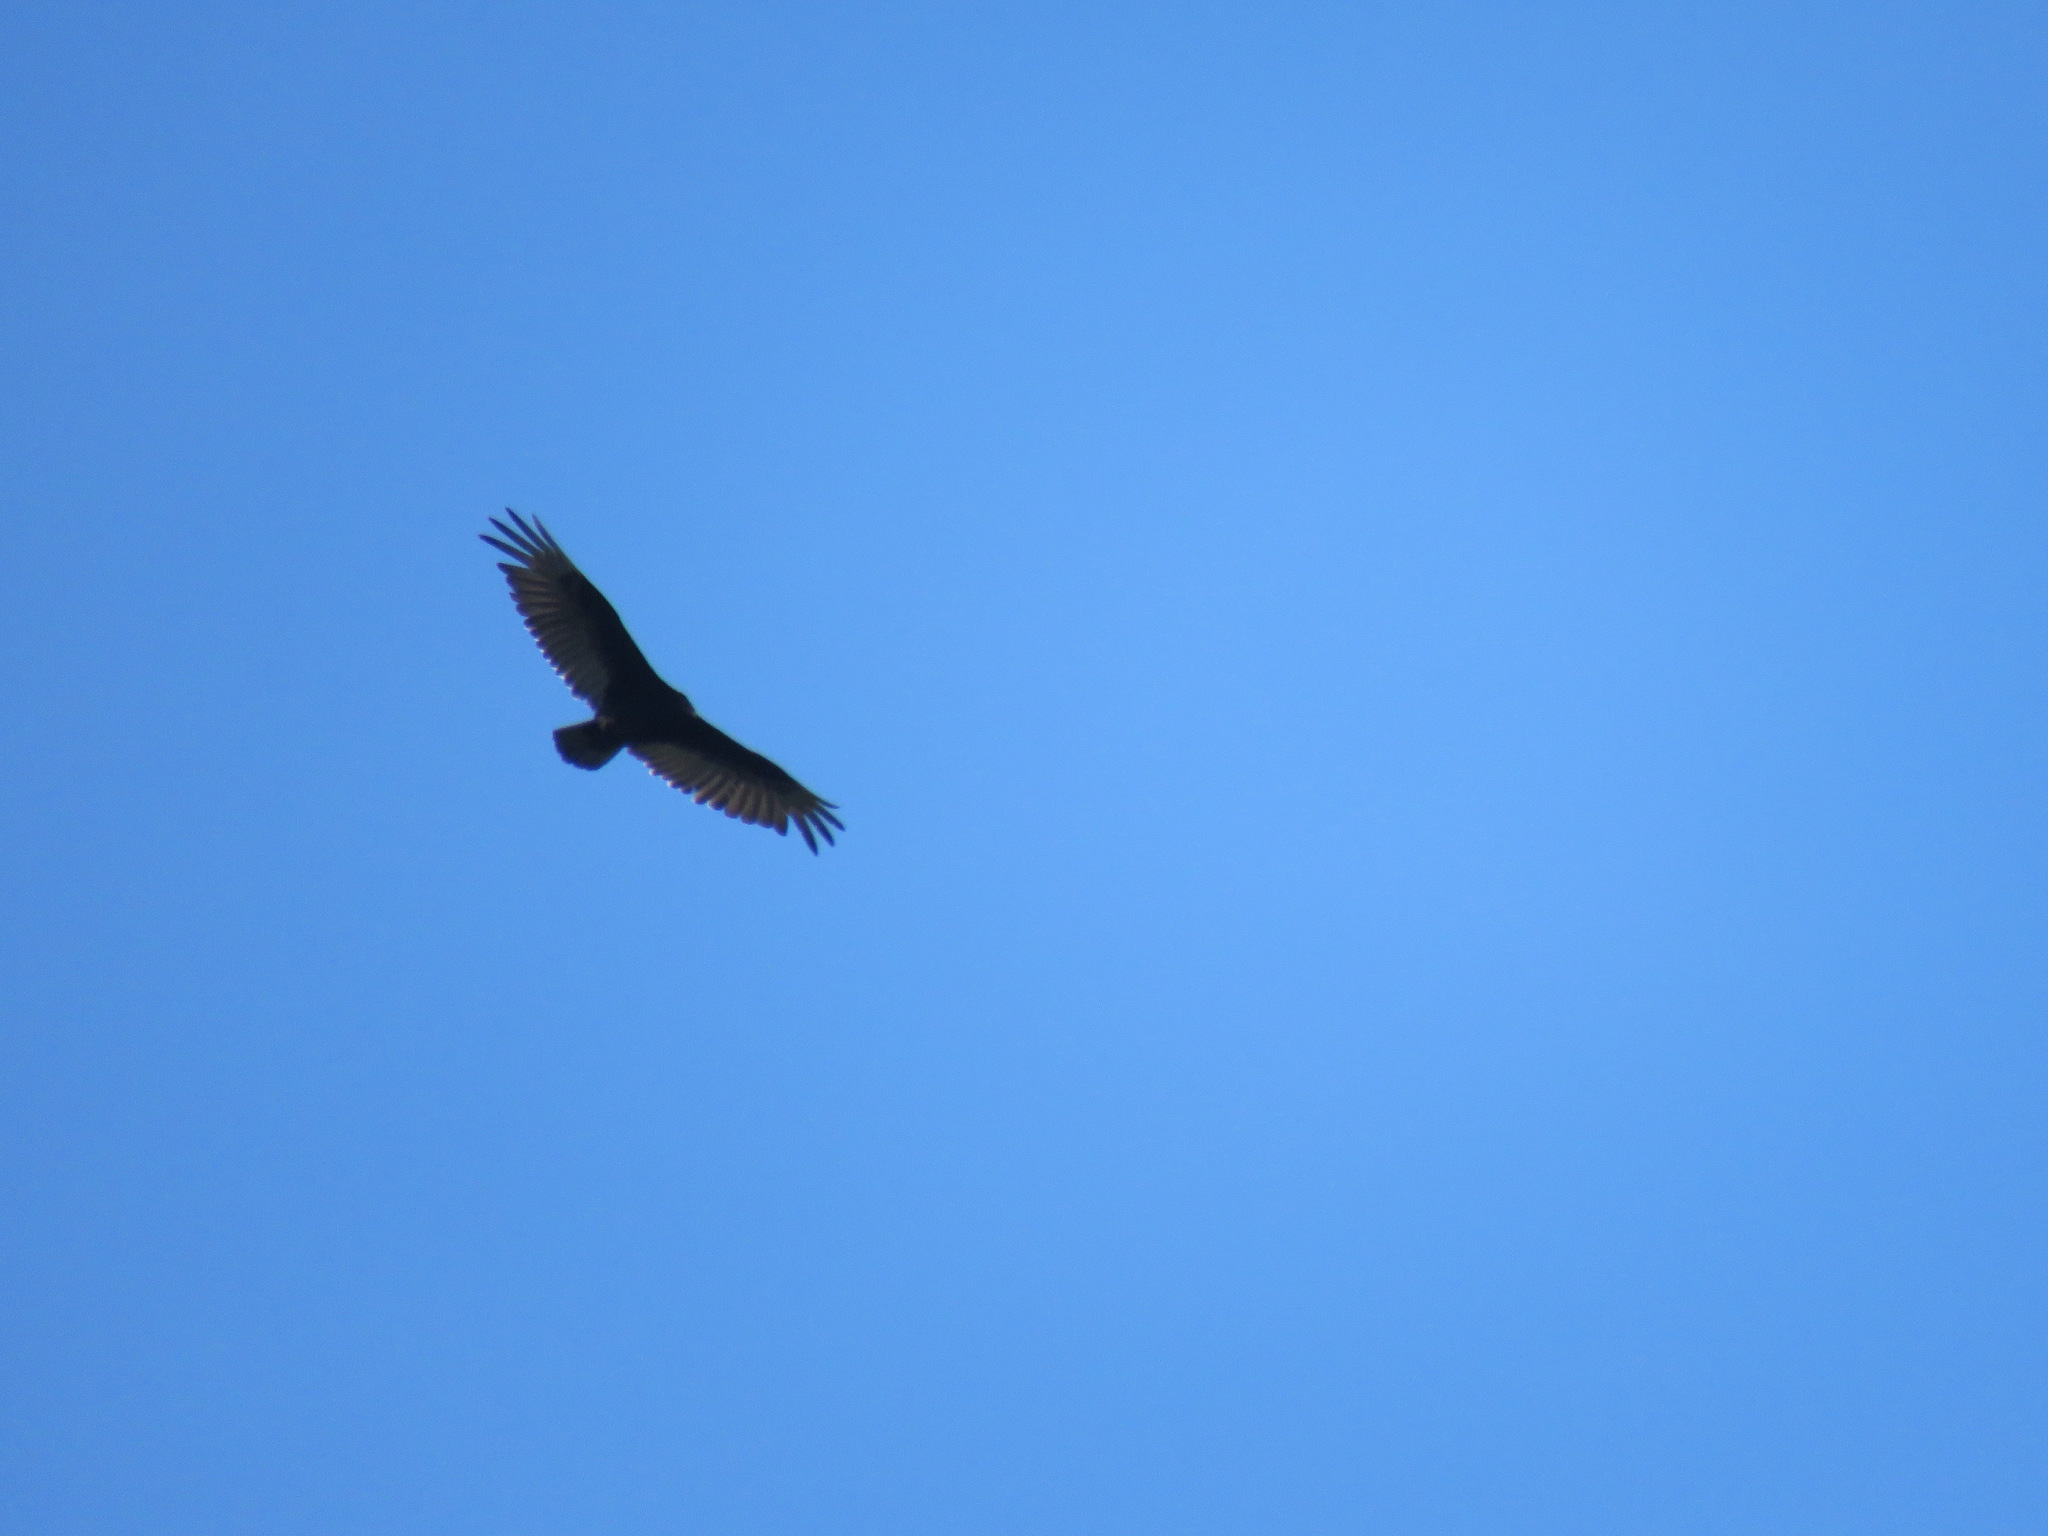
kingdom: Animalia
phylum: Chordata
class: Aves
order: Accipitriformes
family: Cathartidae
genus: Cathartes
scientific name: Cathartes aura
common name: Turkey vulture
